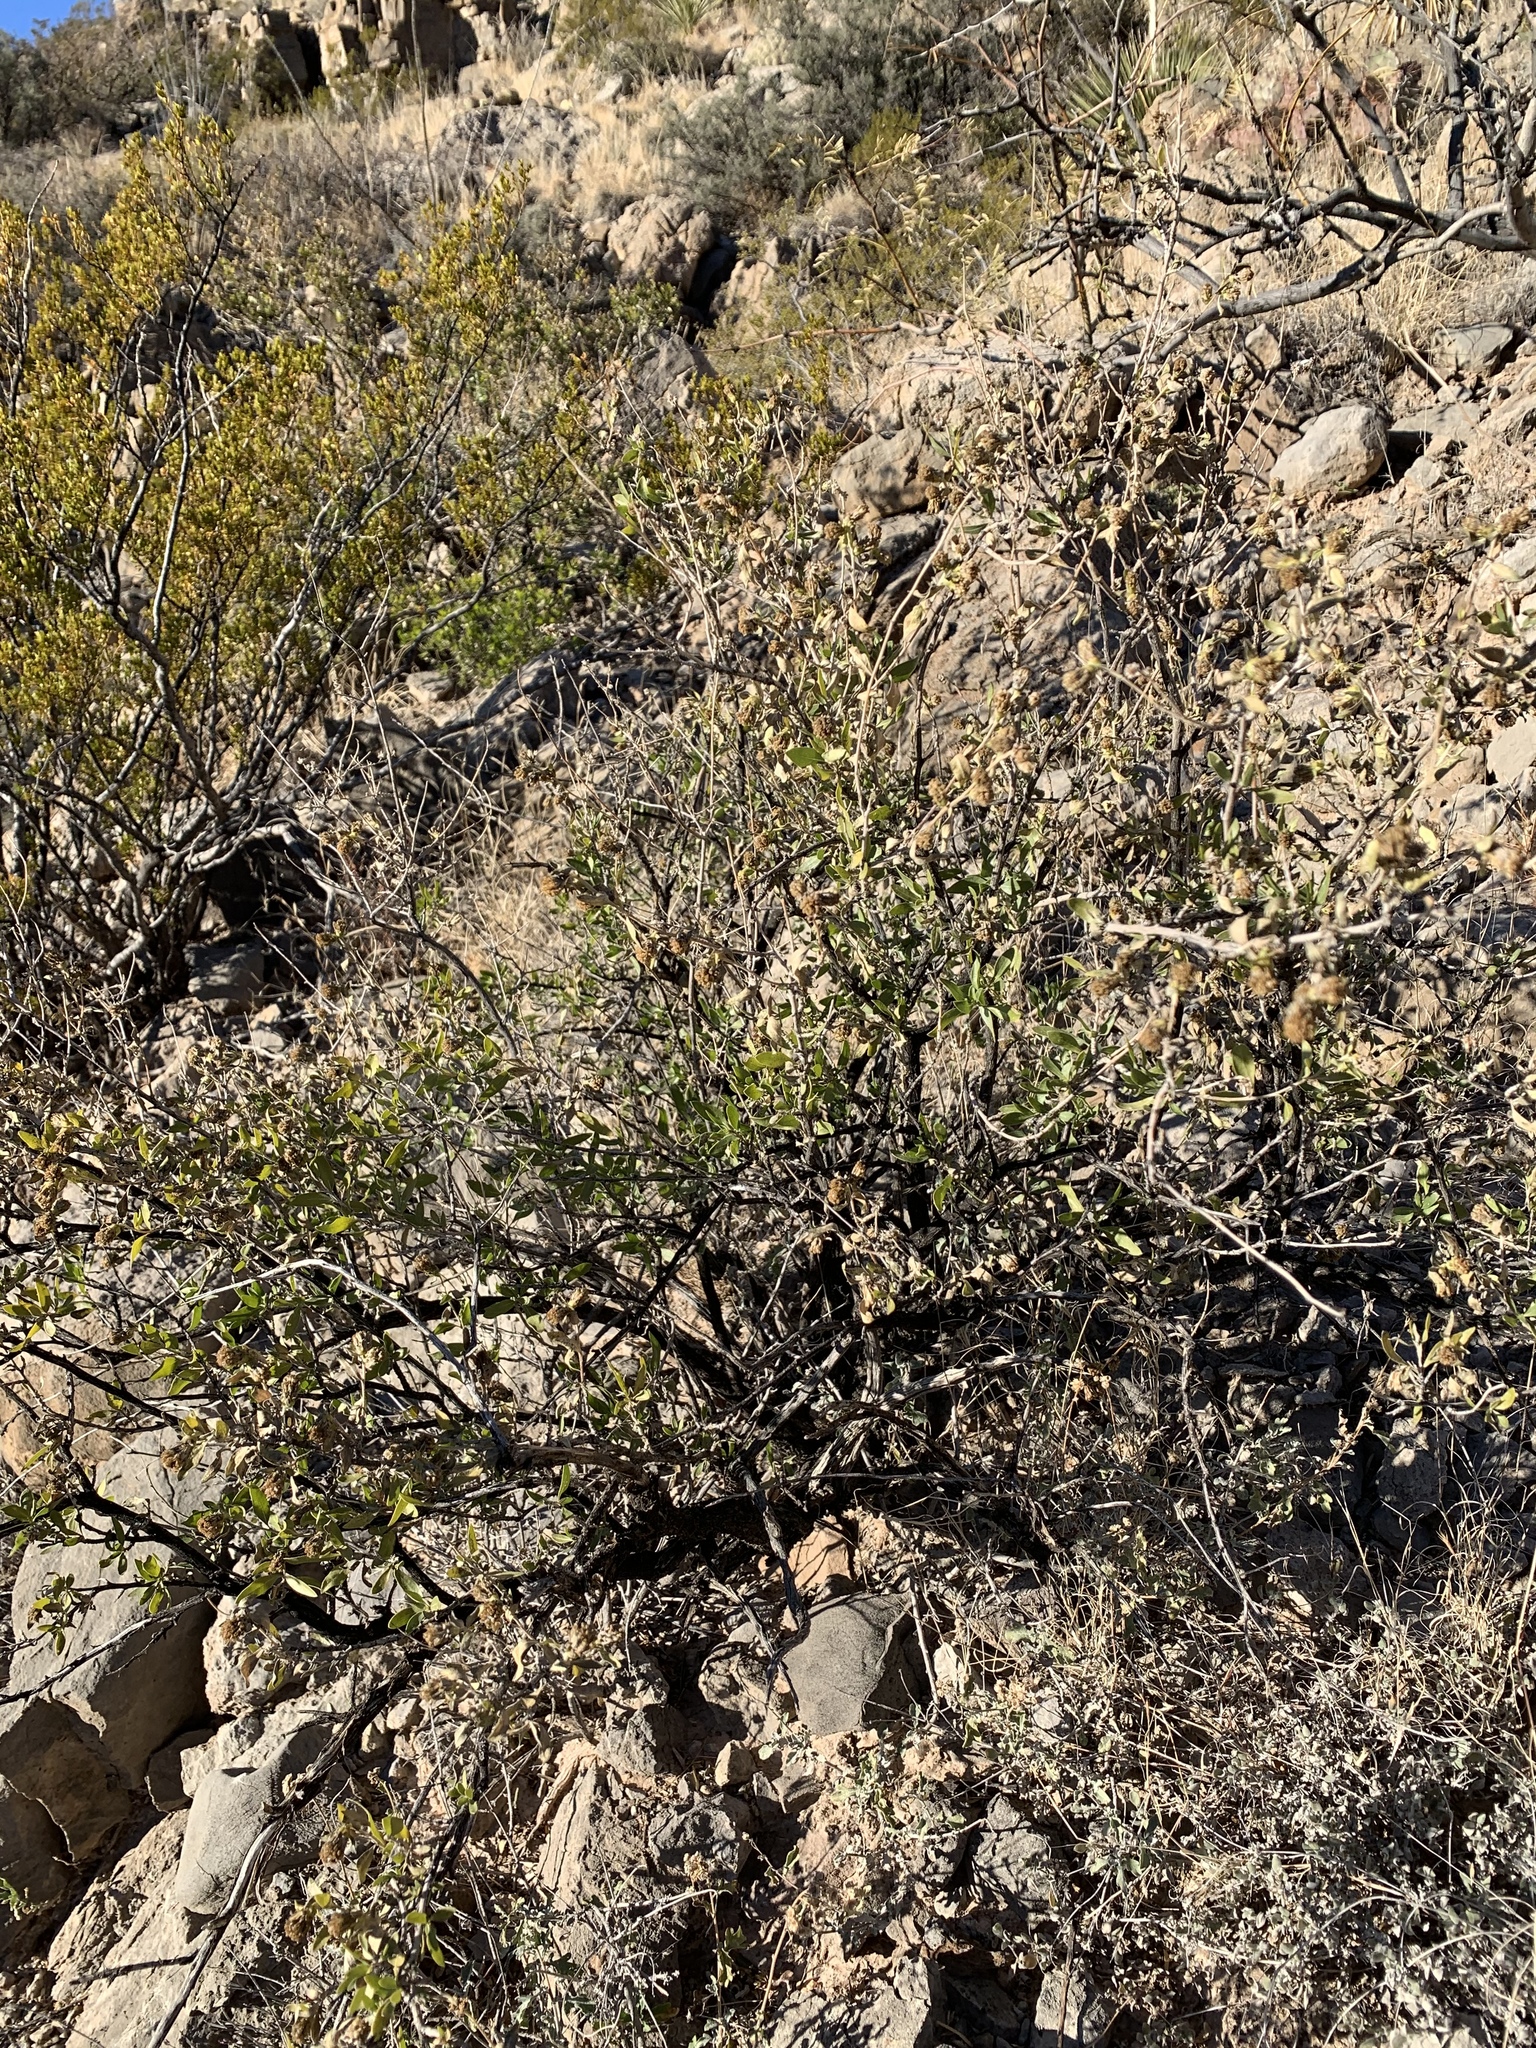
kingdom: Plantae
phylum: Tracheophyta
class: Magnoliopsida
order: Asterales
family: Asteraceae
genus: Flourensia
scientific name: Flourensia cernua
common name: Varnishbush
